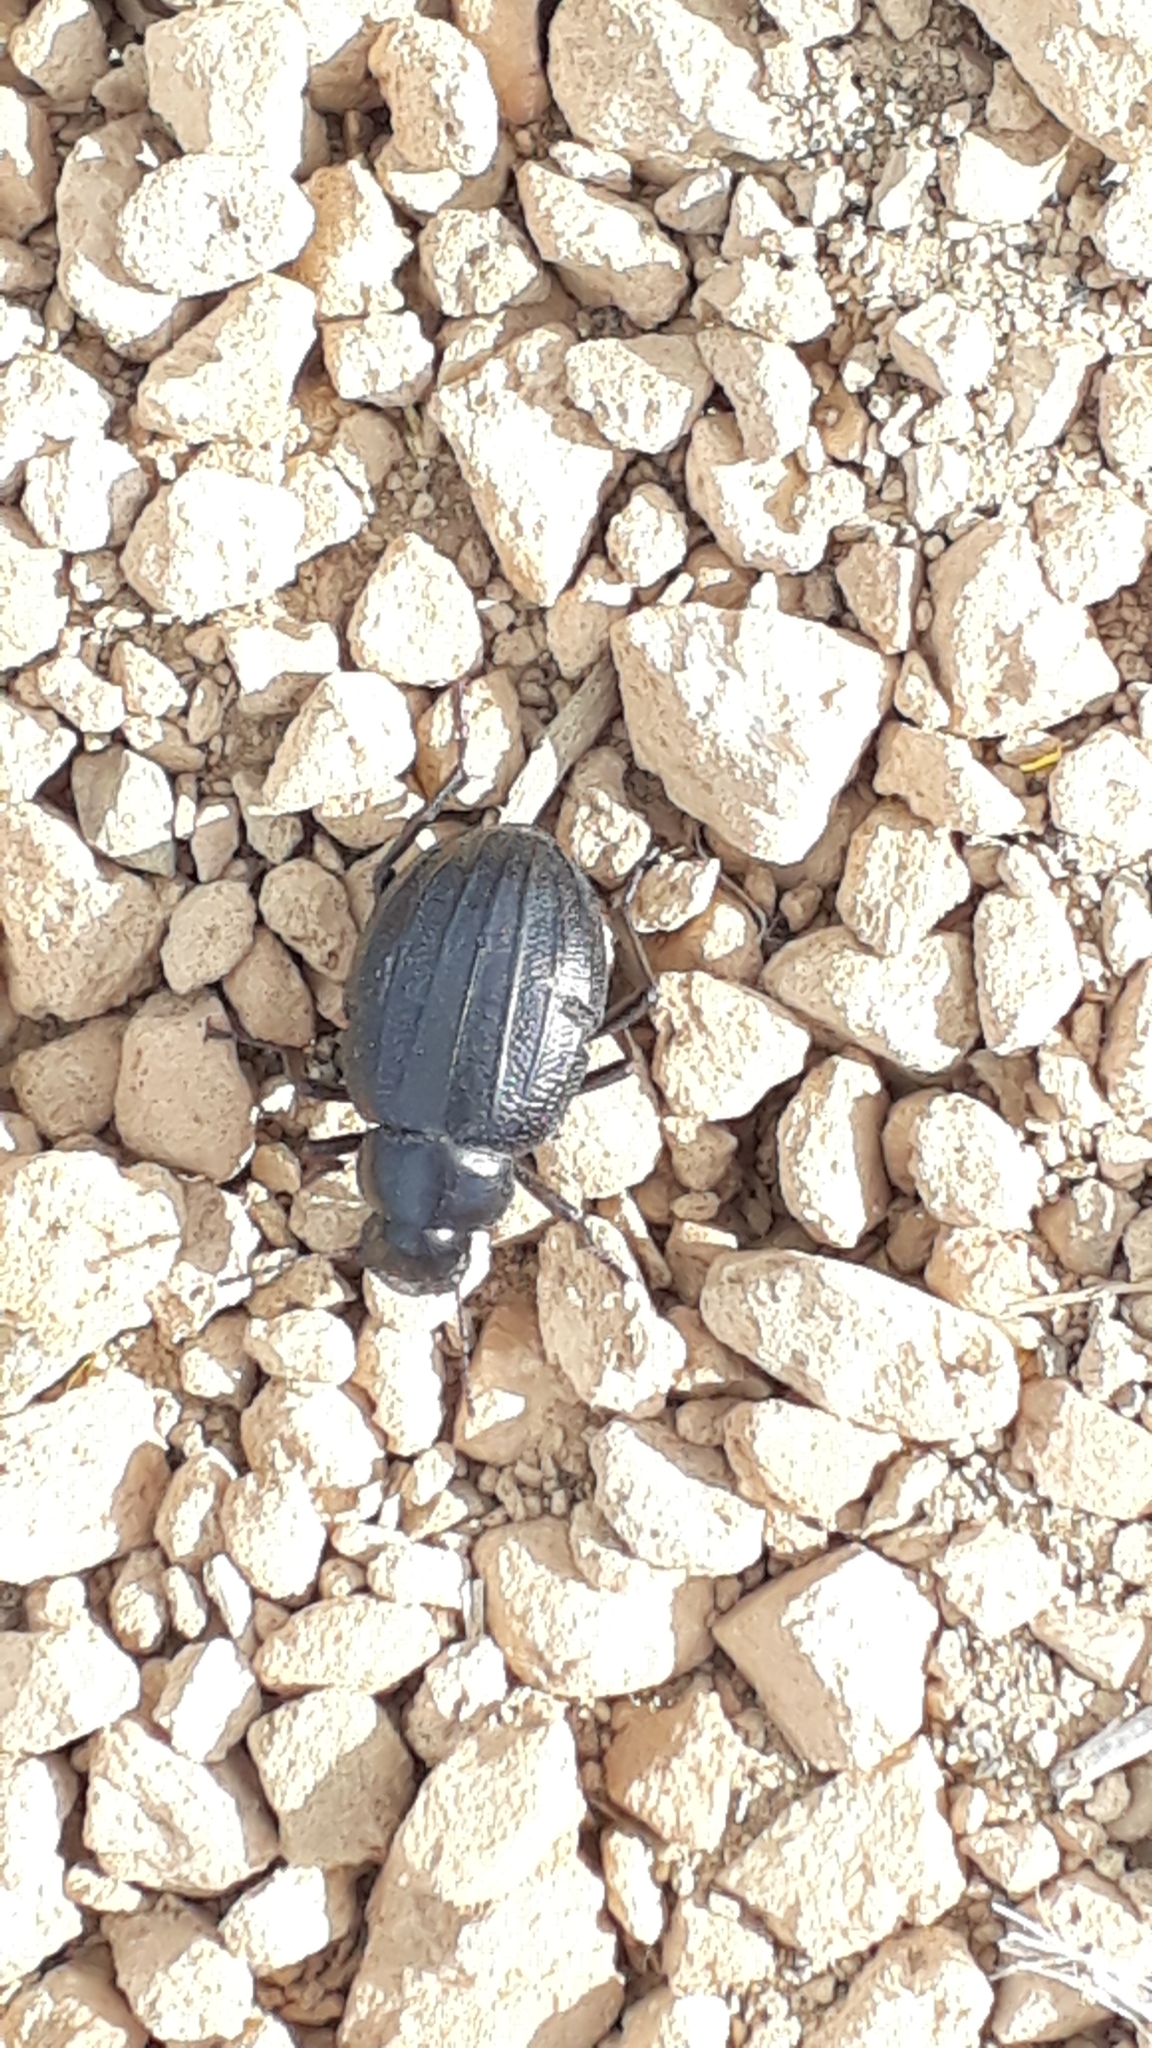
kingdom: Animalia
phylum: Arthropoda
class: Insecta
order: Coleoptera
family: Tenebrionidae
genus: Pimelia
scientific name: Pimelia ascendens
